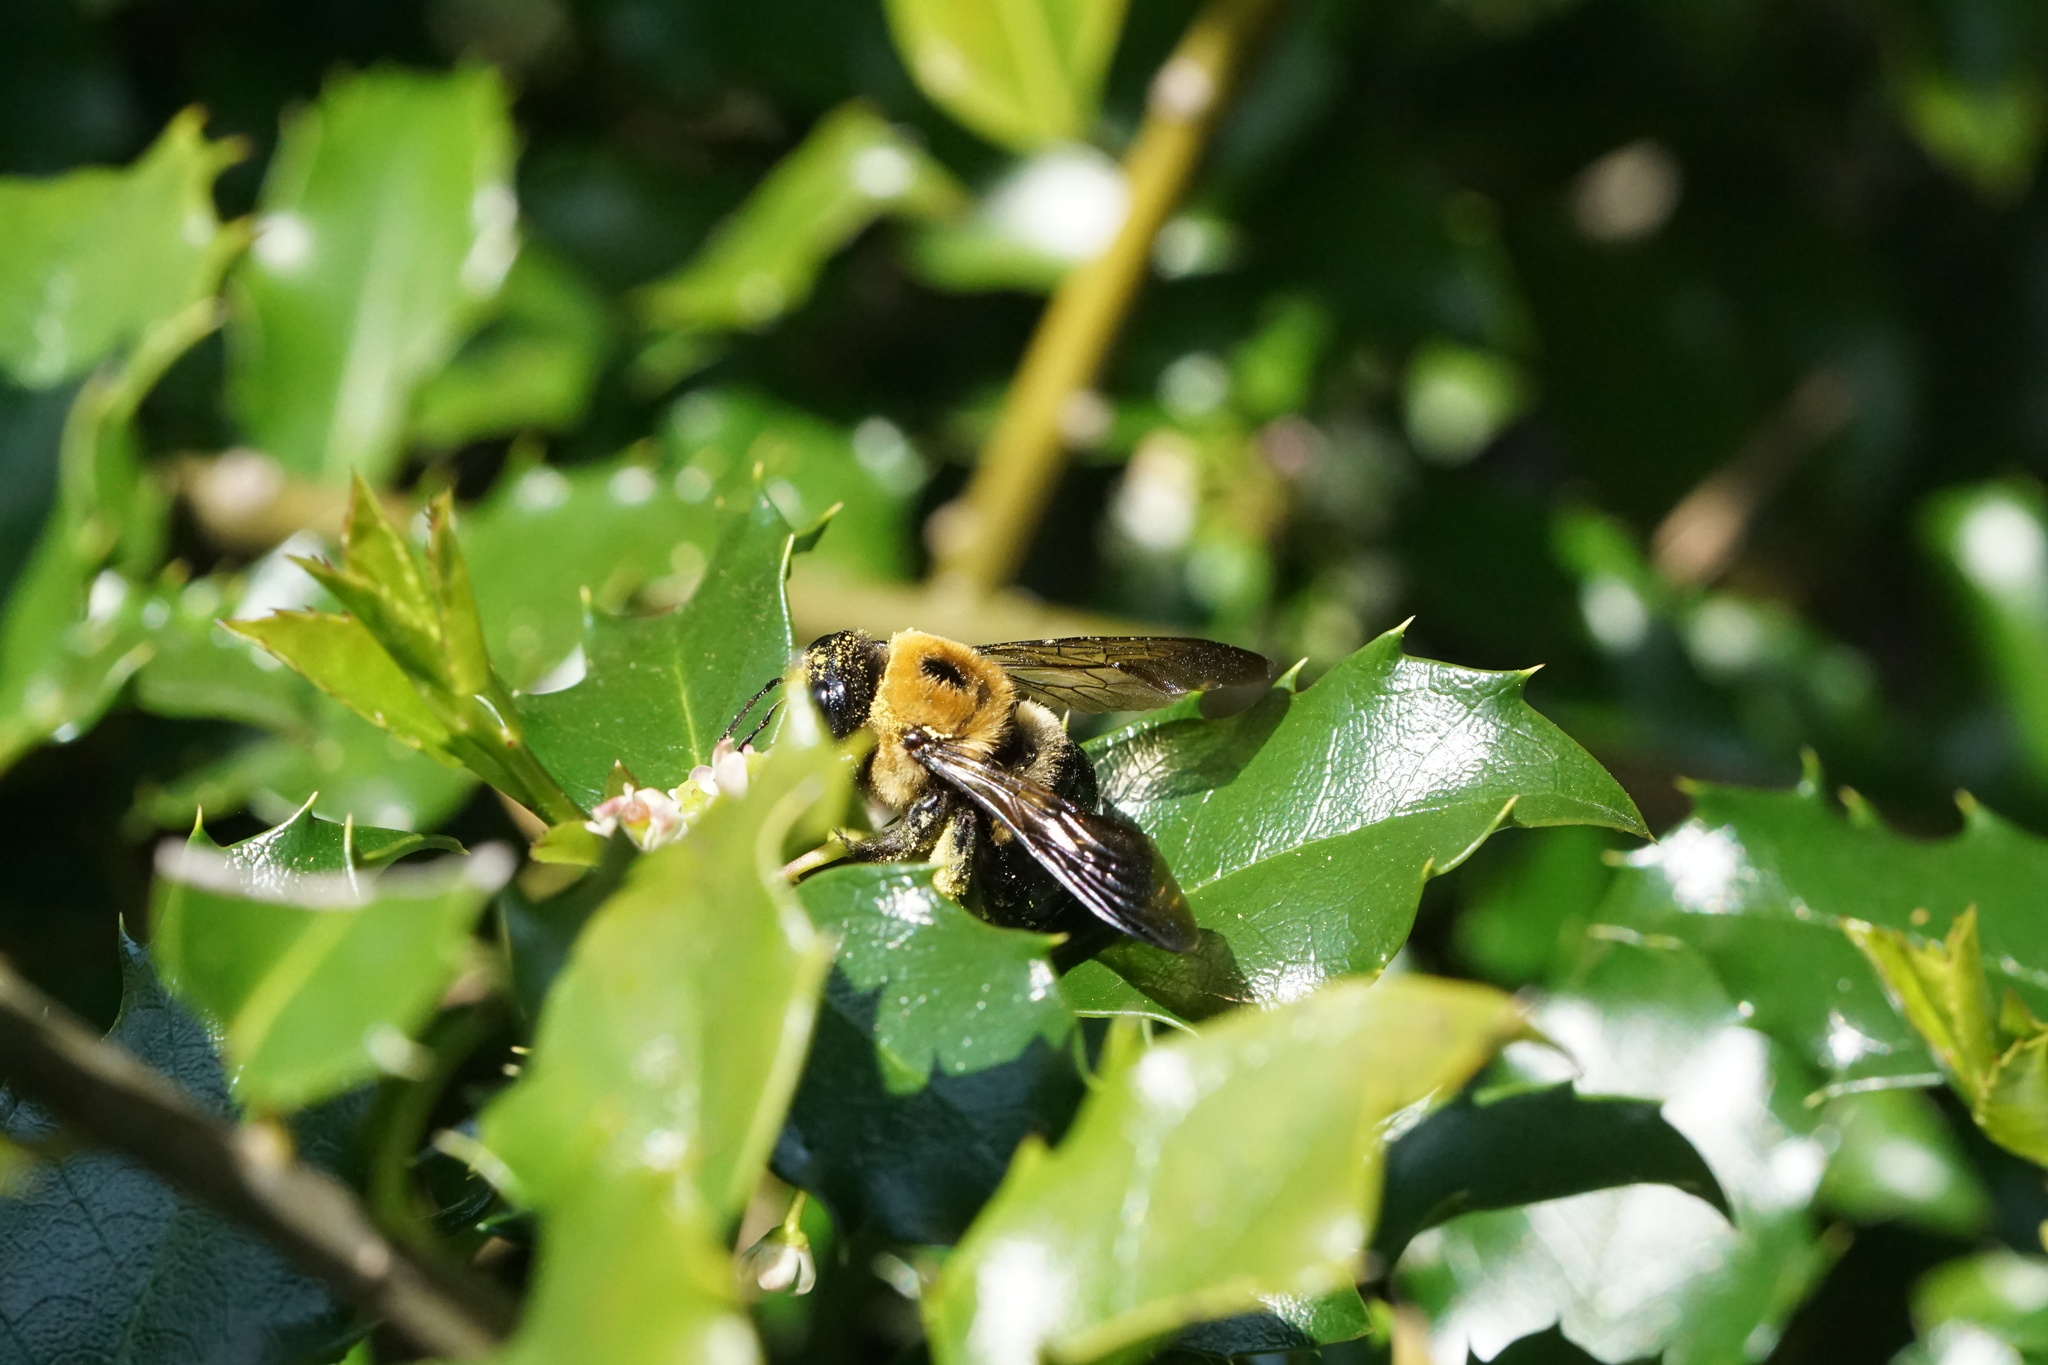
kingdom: Animalia
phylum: Arthropoda
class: Insecta
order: Hymenoptera
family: Apidae
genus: Xylocopa
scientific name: Xylocopa virginica
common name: Carpenter bee
